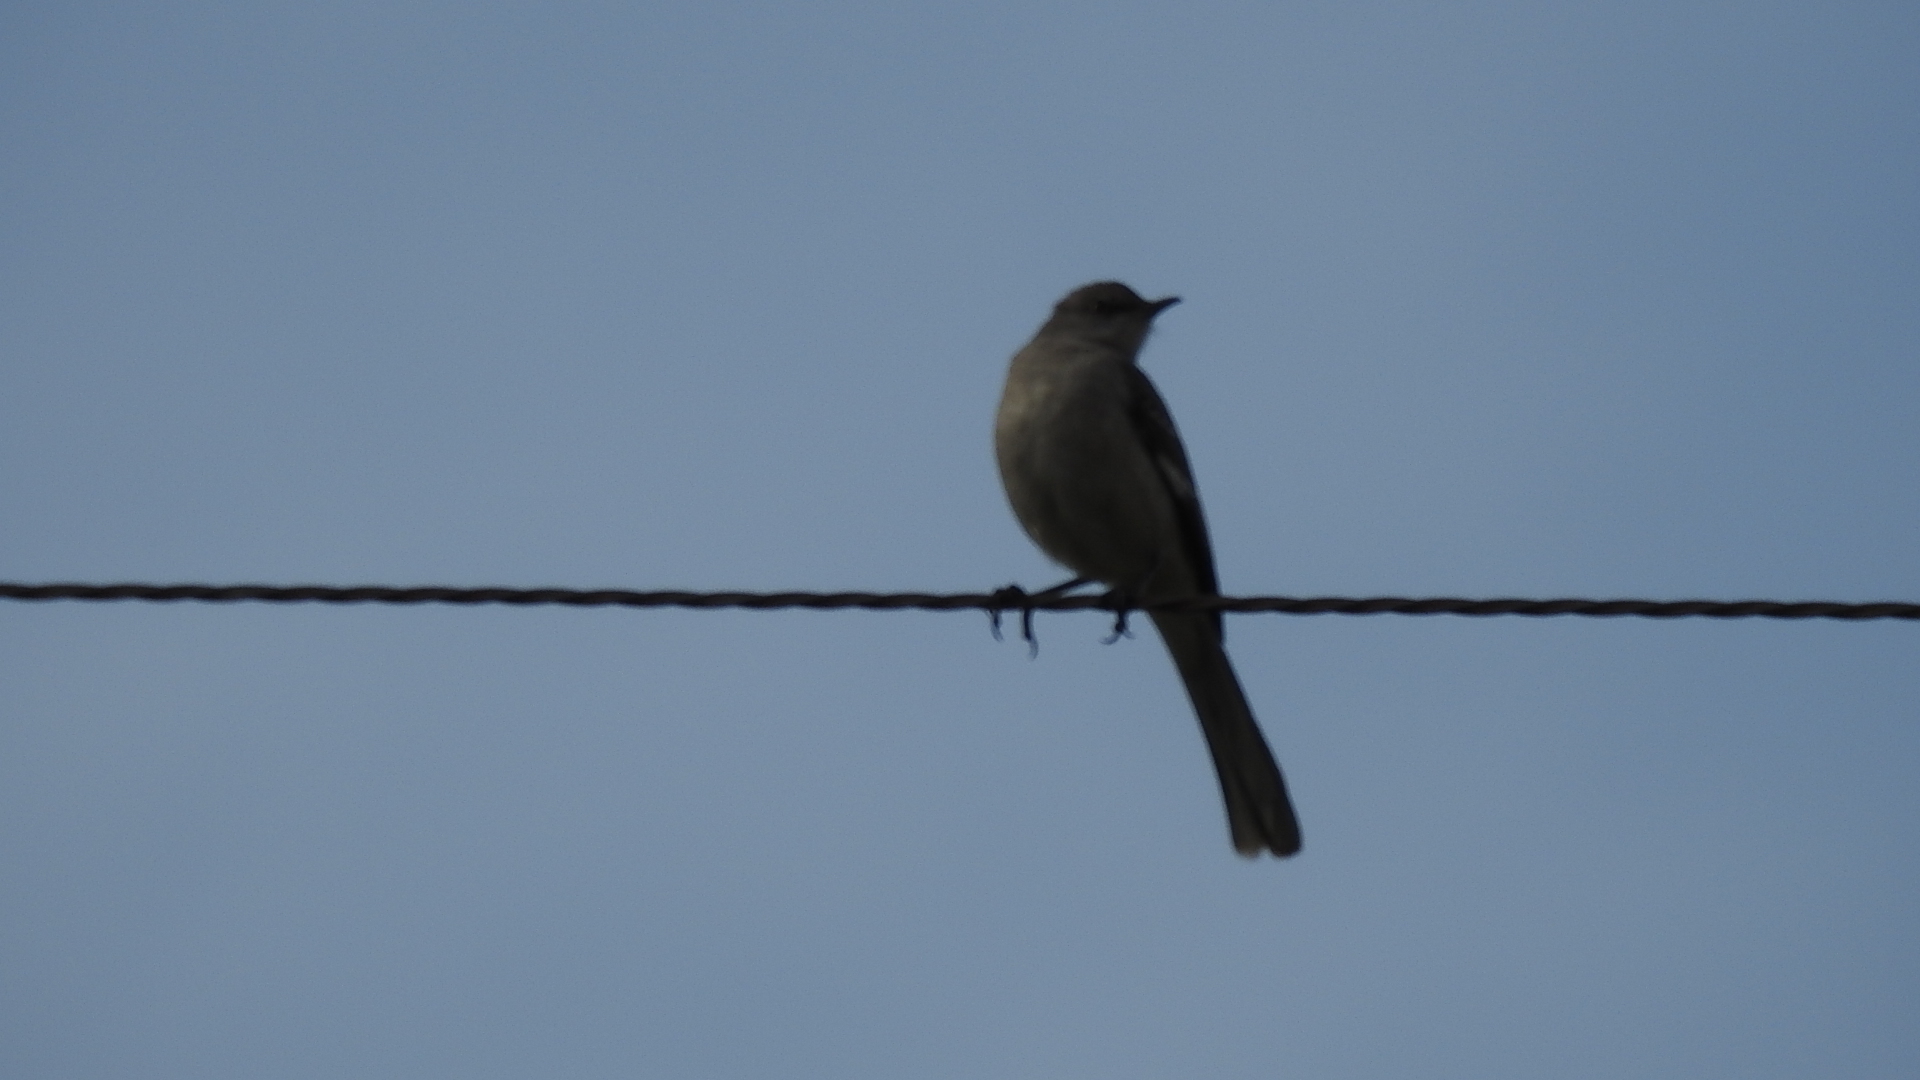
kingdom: Animalia
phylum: Chordata
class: Aves
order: Passeriformes
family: Mimidae
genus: Mimus
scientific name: Mimus polyglottos
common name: Northern mockingbird
